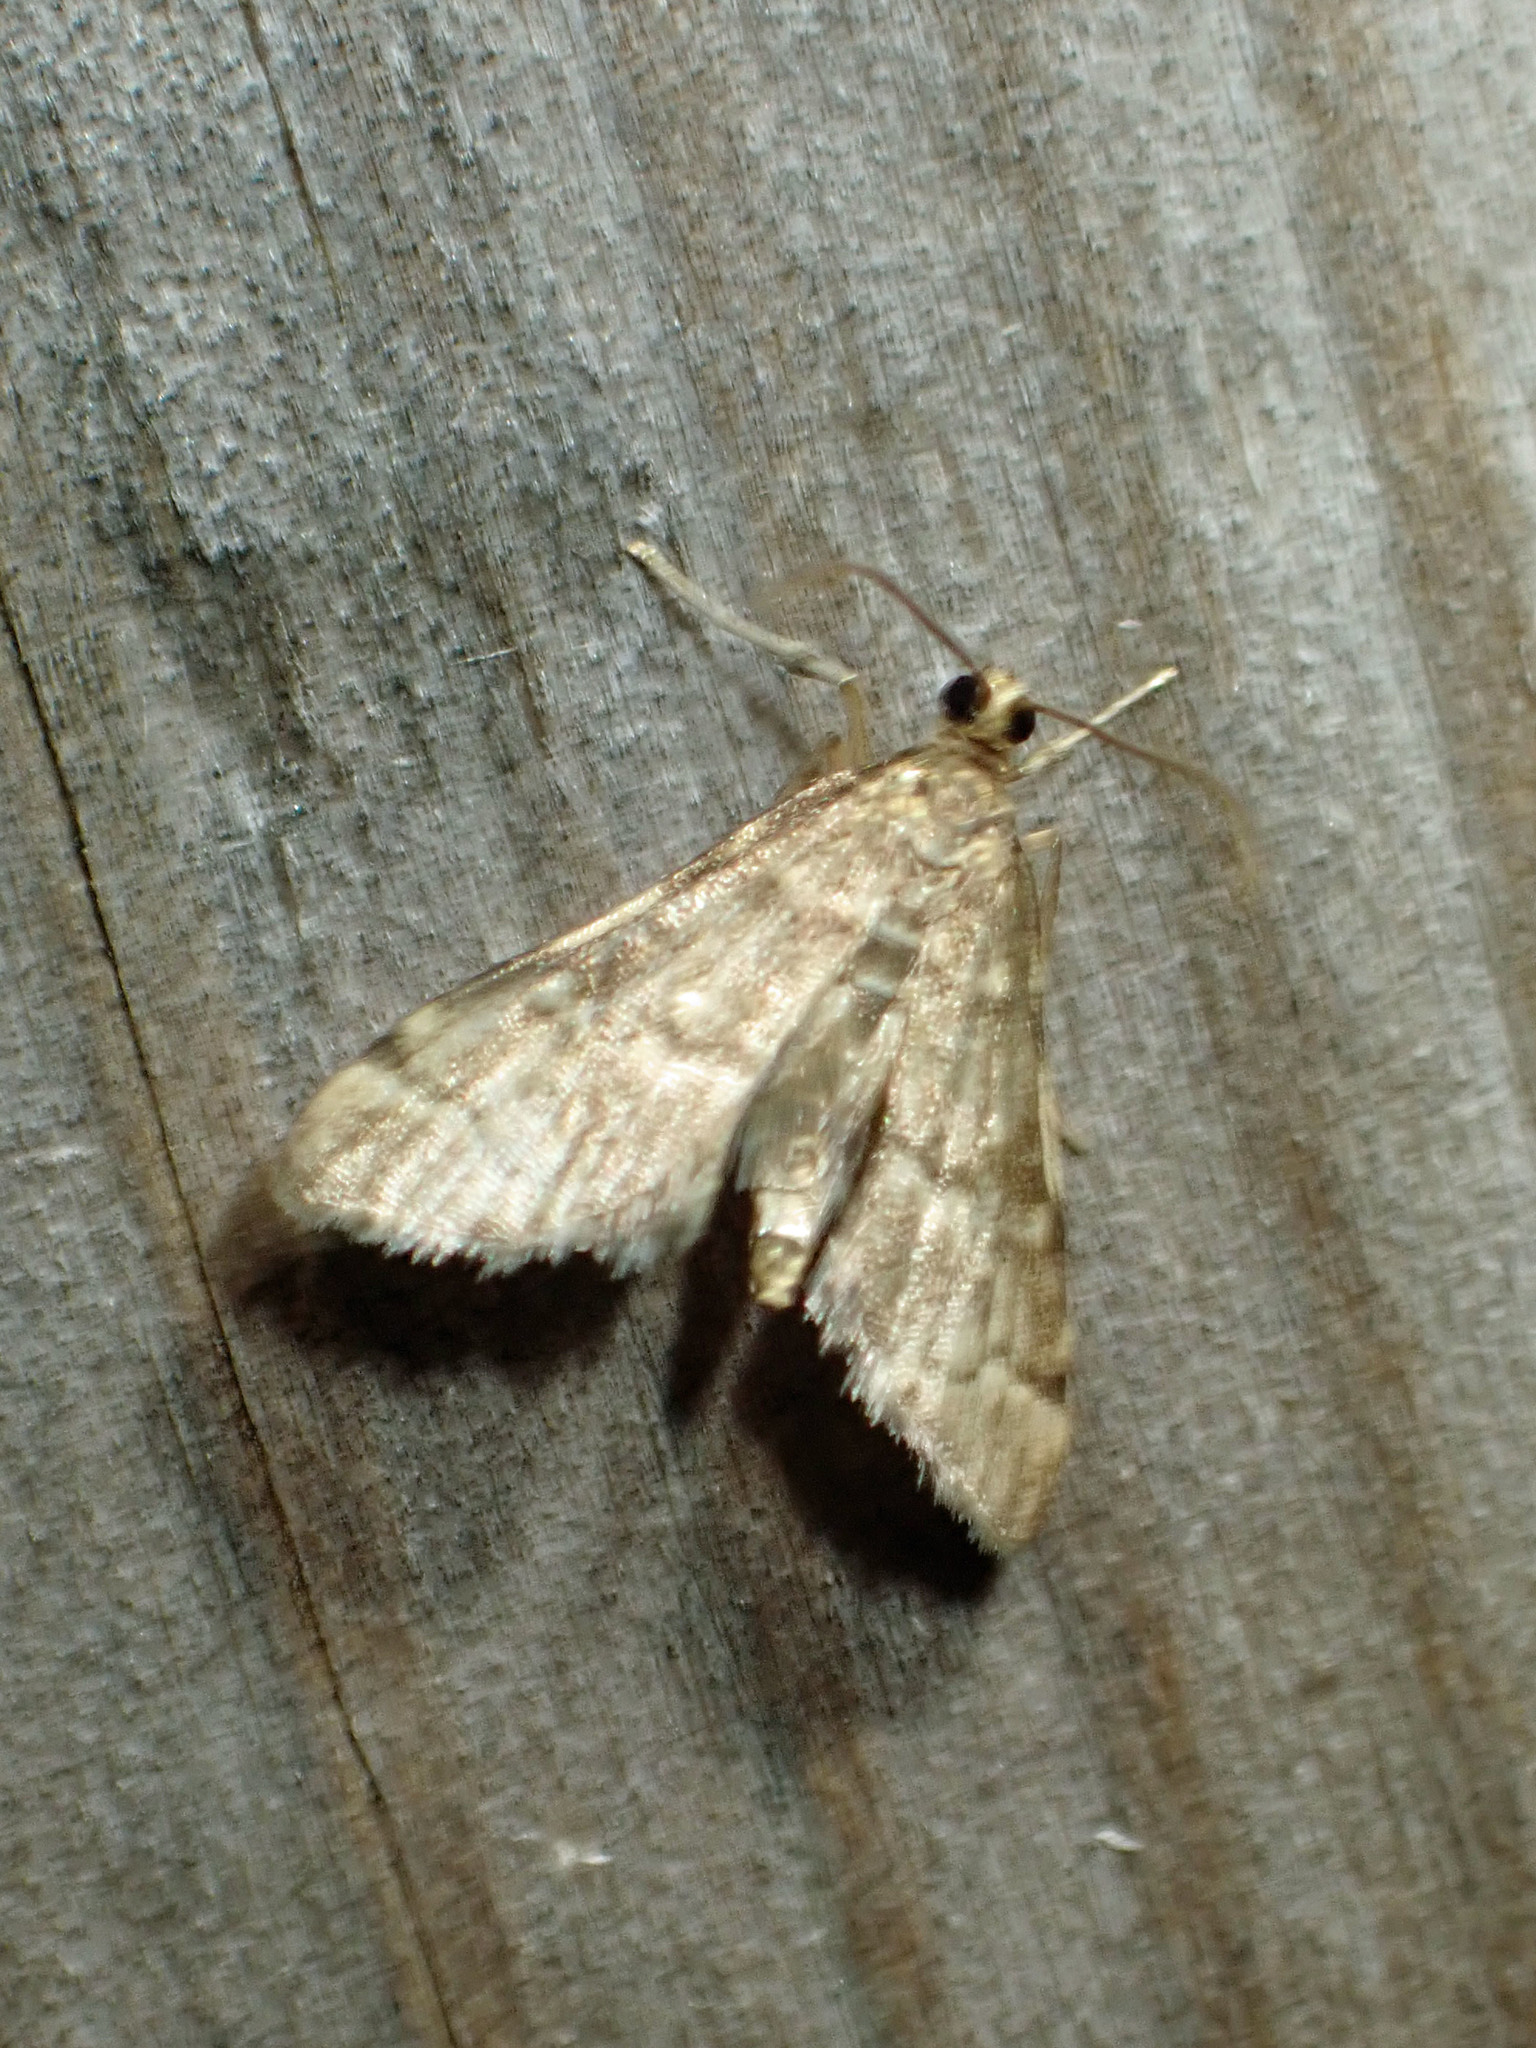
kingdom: Animalia
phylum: Arthropoda
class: Insecta
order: Lepidoptera
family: Crambidae
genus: Anageshna
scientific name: Anageshna primordialis
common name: Yellow-spotted webworm moth
